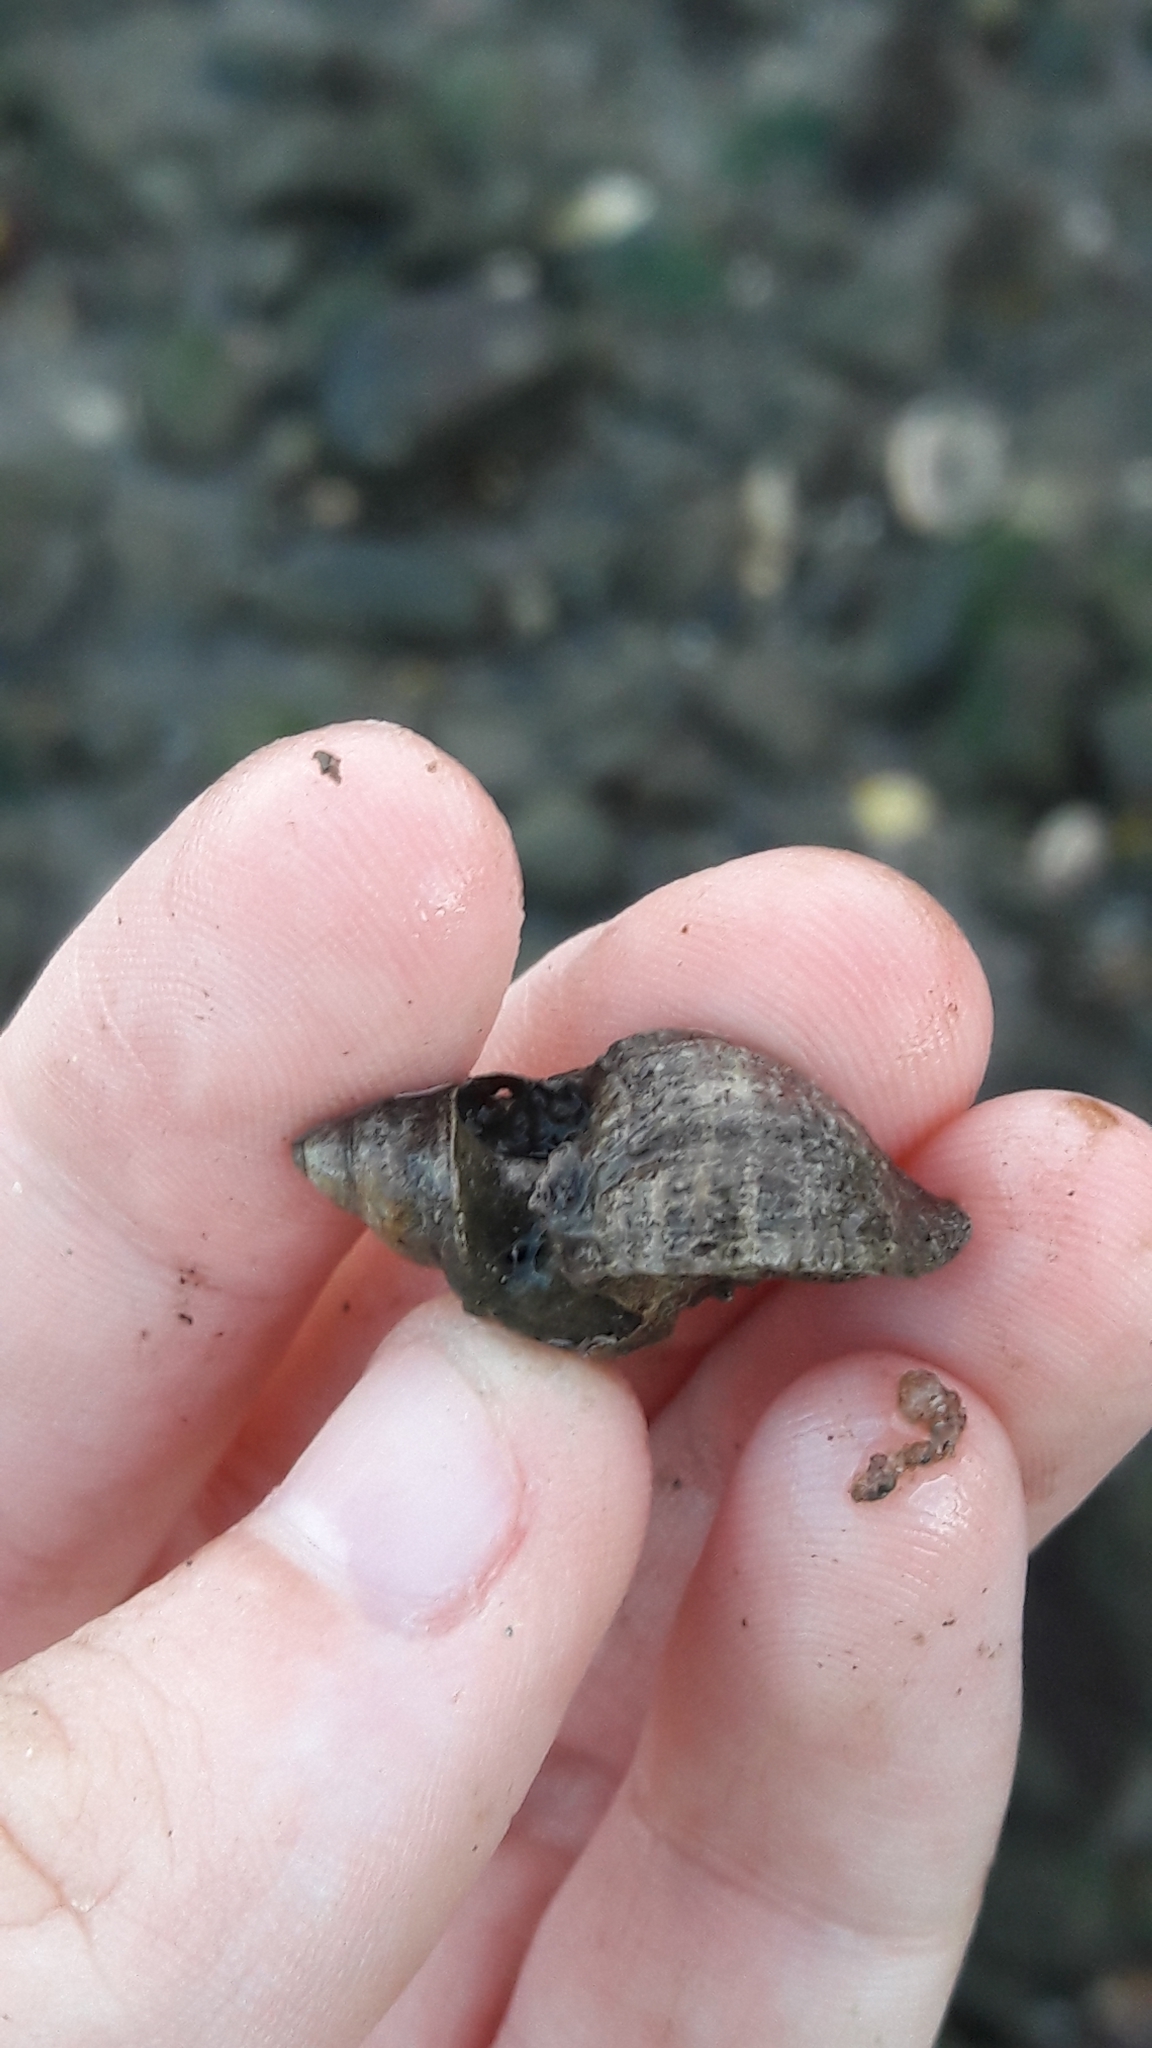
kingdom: Animalia
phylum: Mollusca
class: Gastropoda
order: Neogastropoda
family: Muricidae
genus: Urosalpinx
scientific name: Urosalpinx cinerea
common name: American sting winkle
